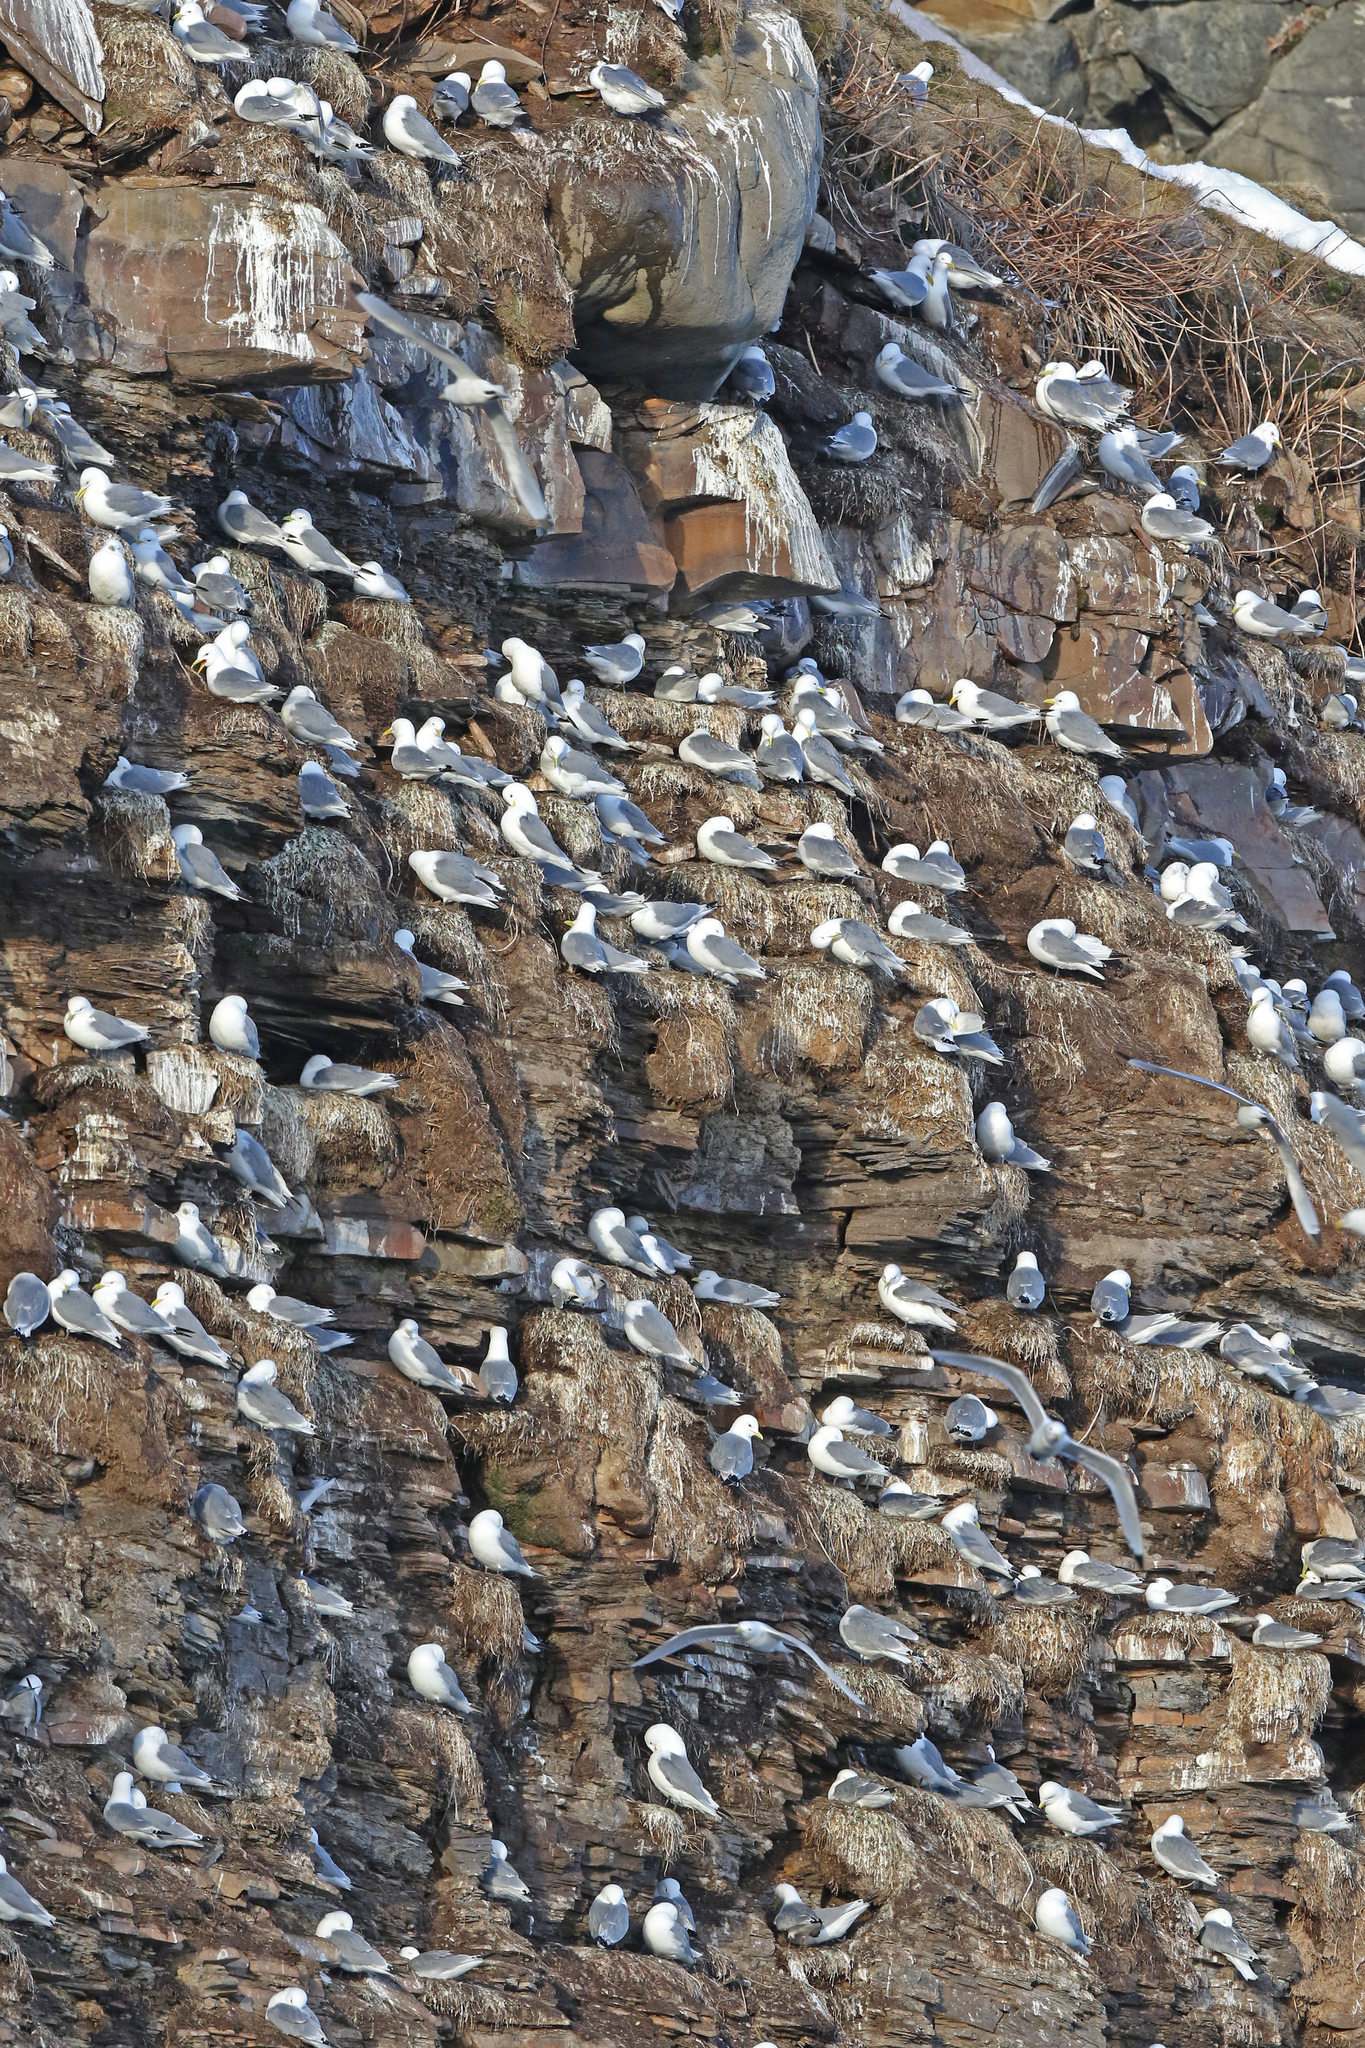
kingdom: Animalia
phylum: Chordata
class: Aves
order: Charadriiformes
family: Laridae
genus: Rissa
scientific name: Rissa tridactyla
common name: Black-legged kittiwake
